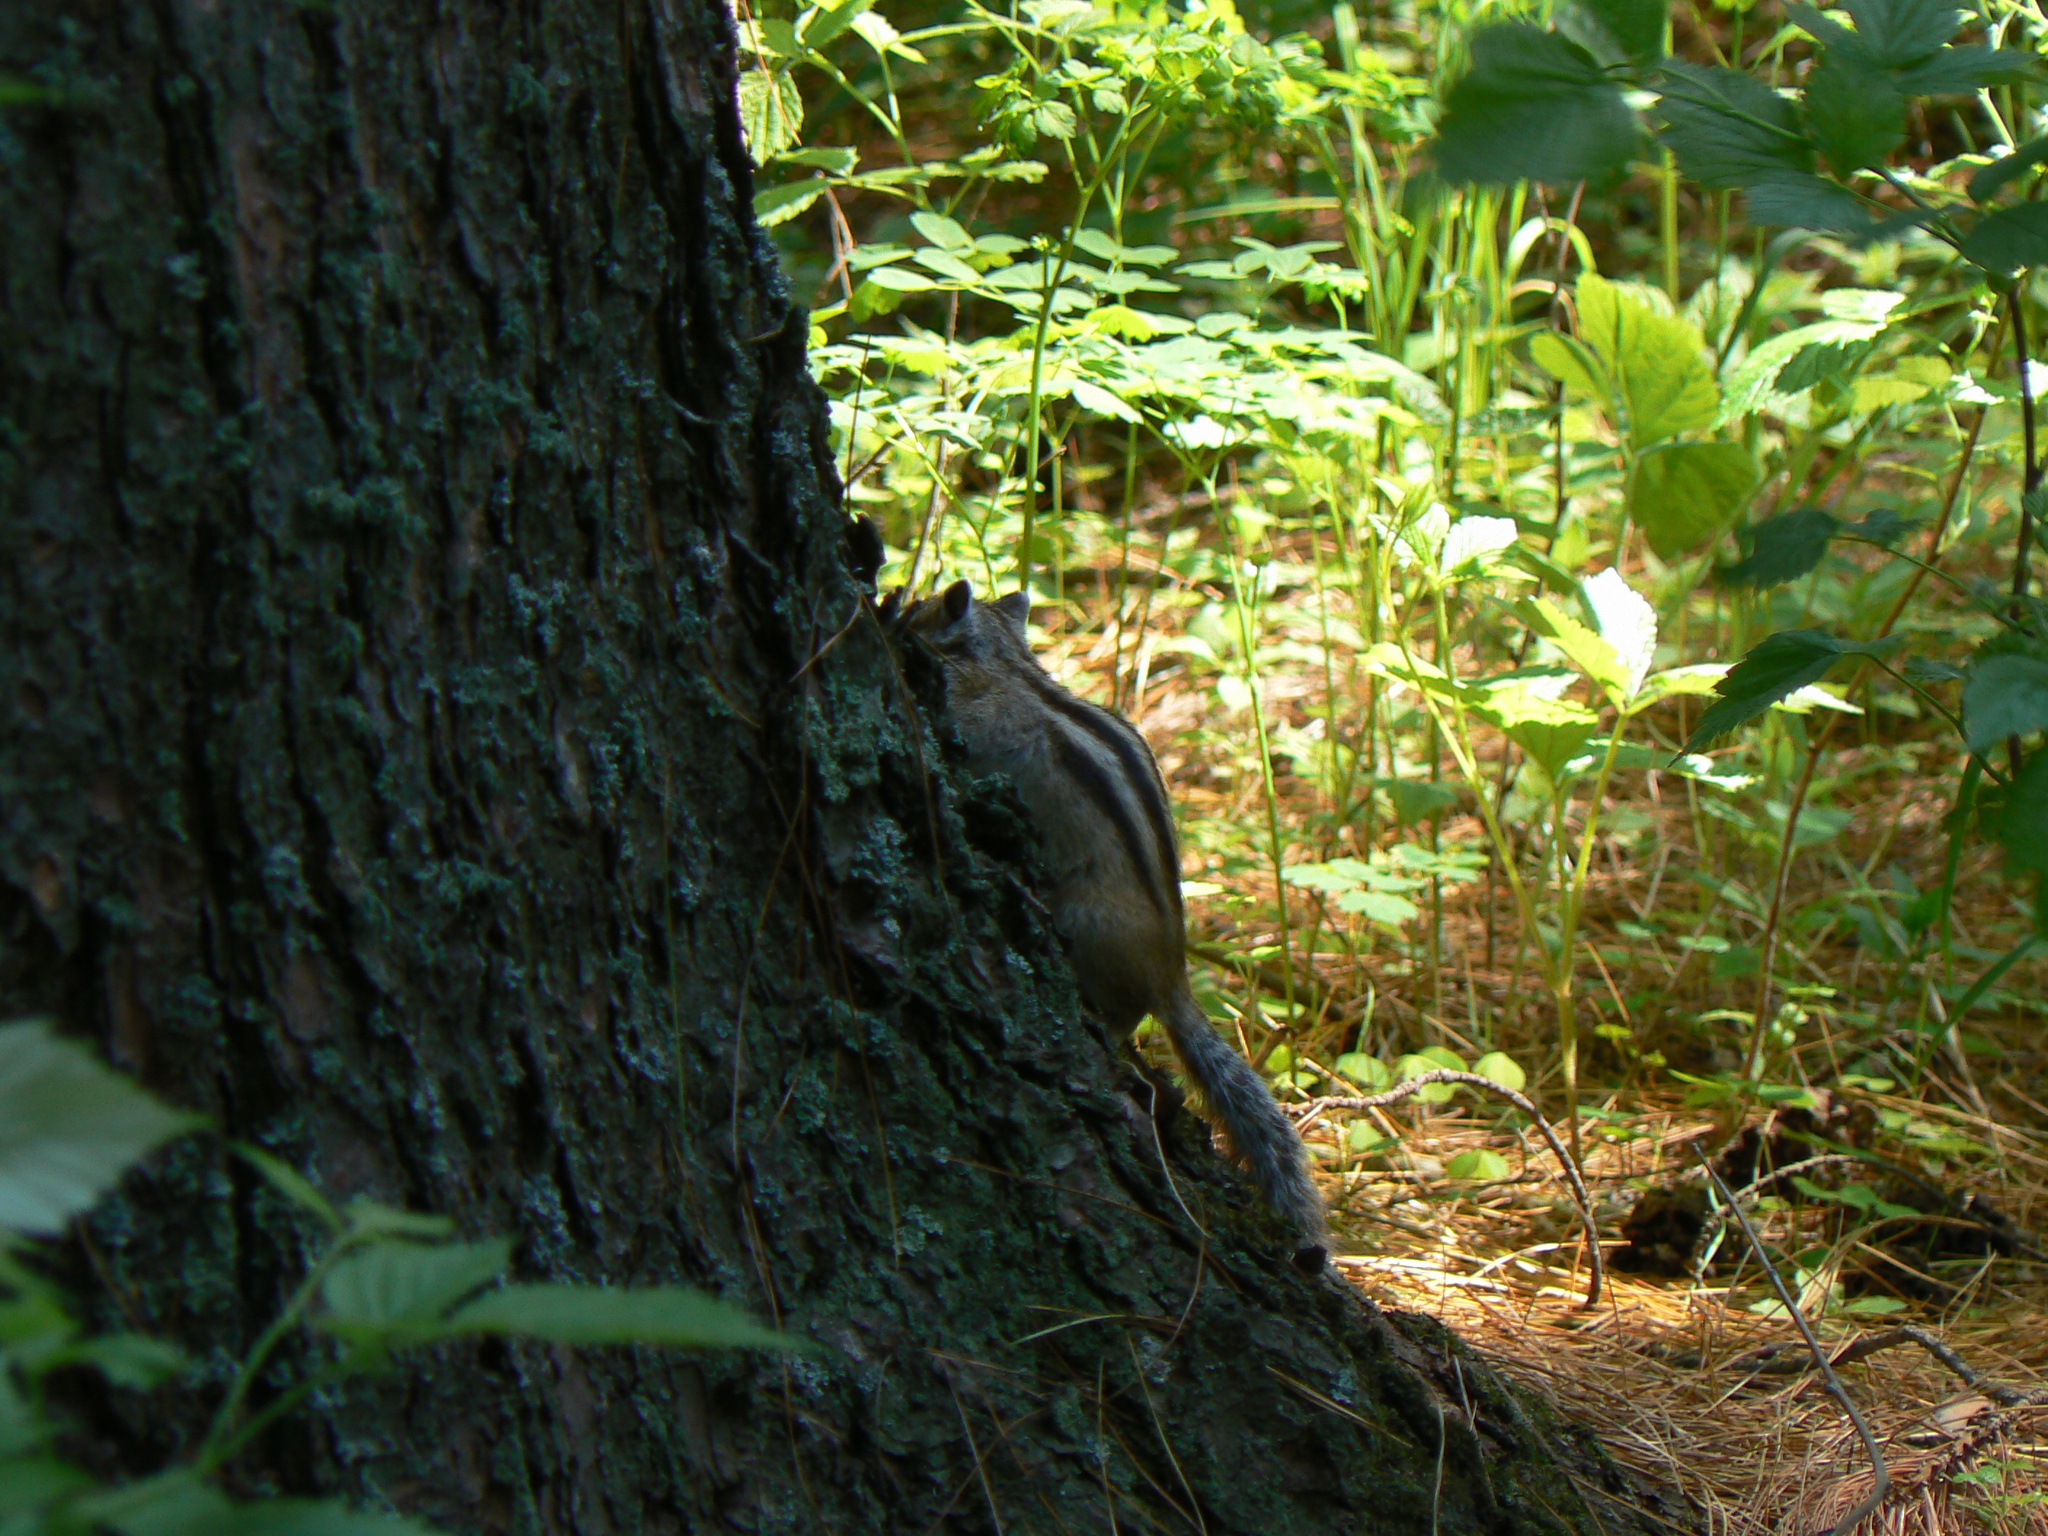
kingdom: Animalia
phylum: Chordata
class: Mammalia
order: Rodentia
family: Sciuridae
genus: Tamias
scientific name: Tamias sibiricus
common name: Siberian chipmunk
